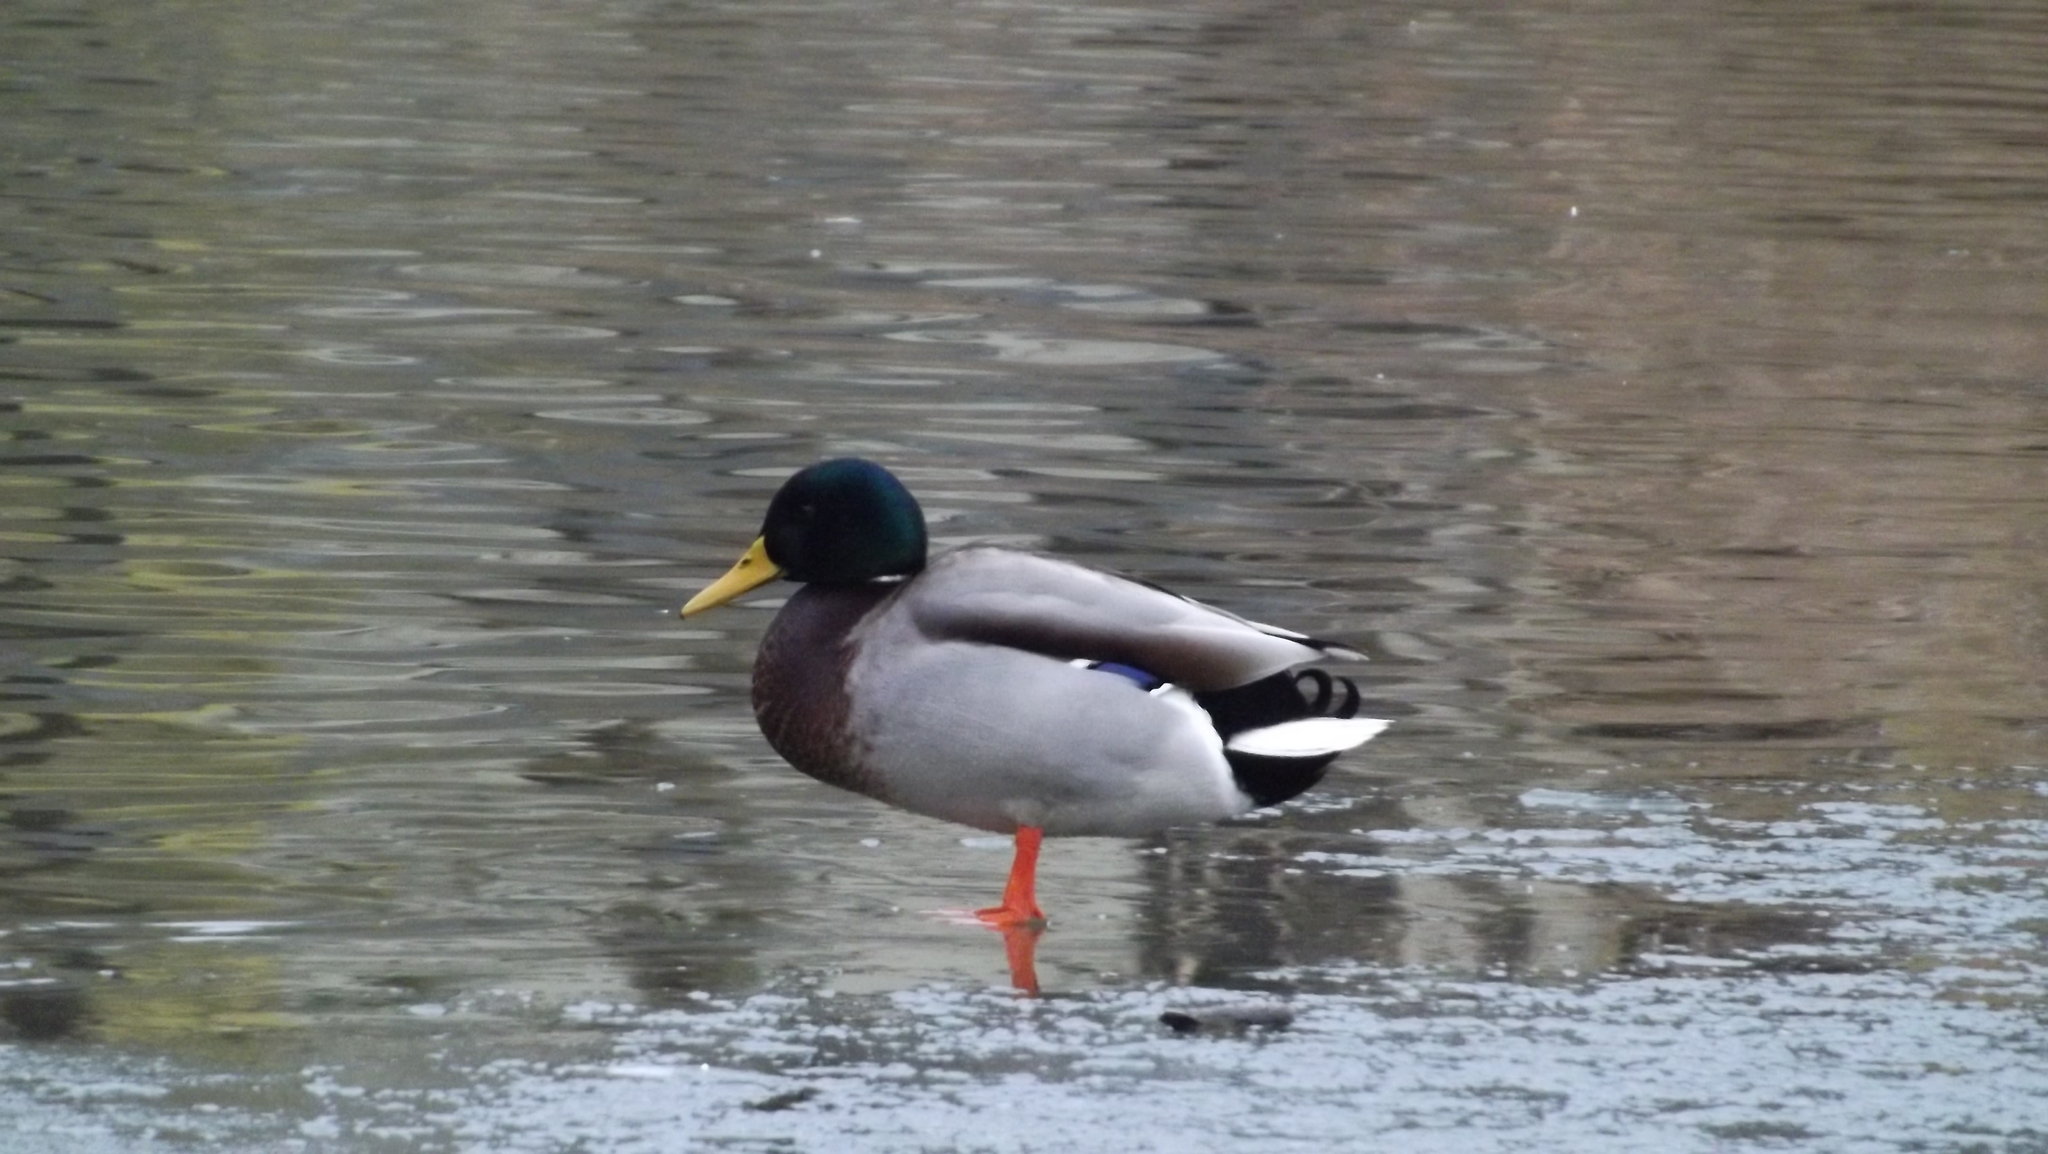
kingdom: Animalia
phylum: Chordata
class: Aves
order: Anseriformes
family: Anatidae
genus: Anas
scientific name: Anas platyrhynchos
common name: Mallard
